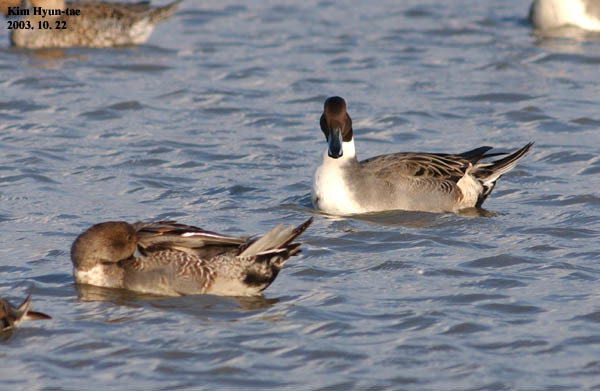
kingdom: Animalia
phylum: Chordata
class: Aves
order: Anseriformes
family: Anatidae
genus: Anas
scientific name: Anas acuta
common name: Northern pintail
